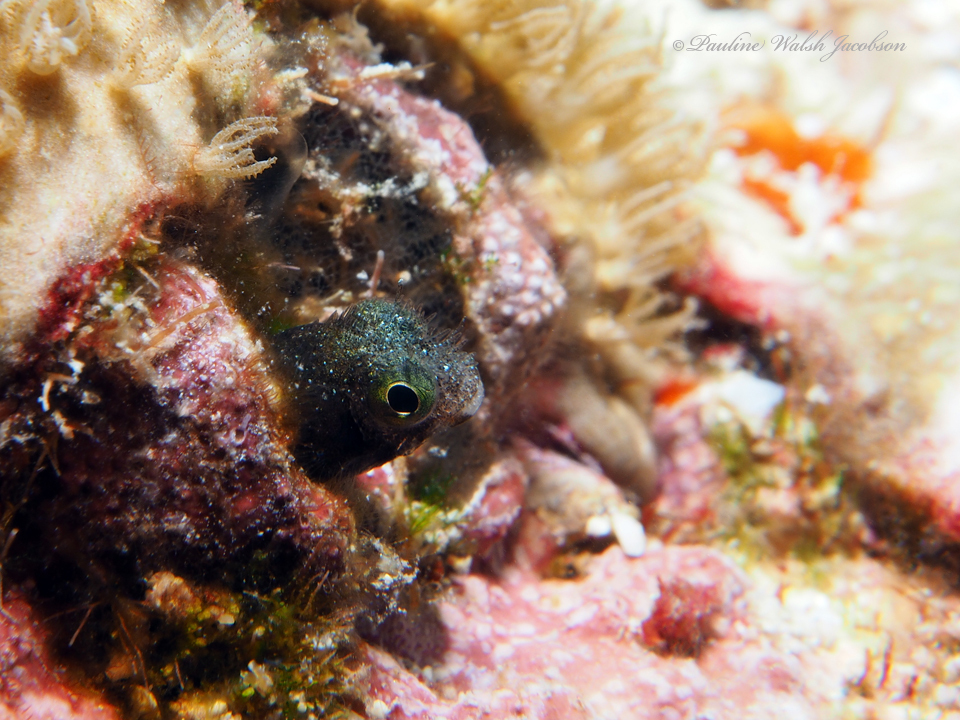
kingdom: Animalia
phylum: Chordata
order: Perciformes
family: Chaenopsidae
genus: Acanthemblemaria
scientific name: Acanthemblemaria spinosa
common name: Spinyhead blenny
